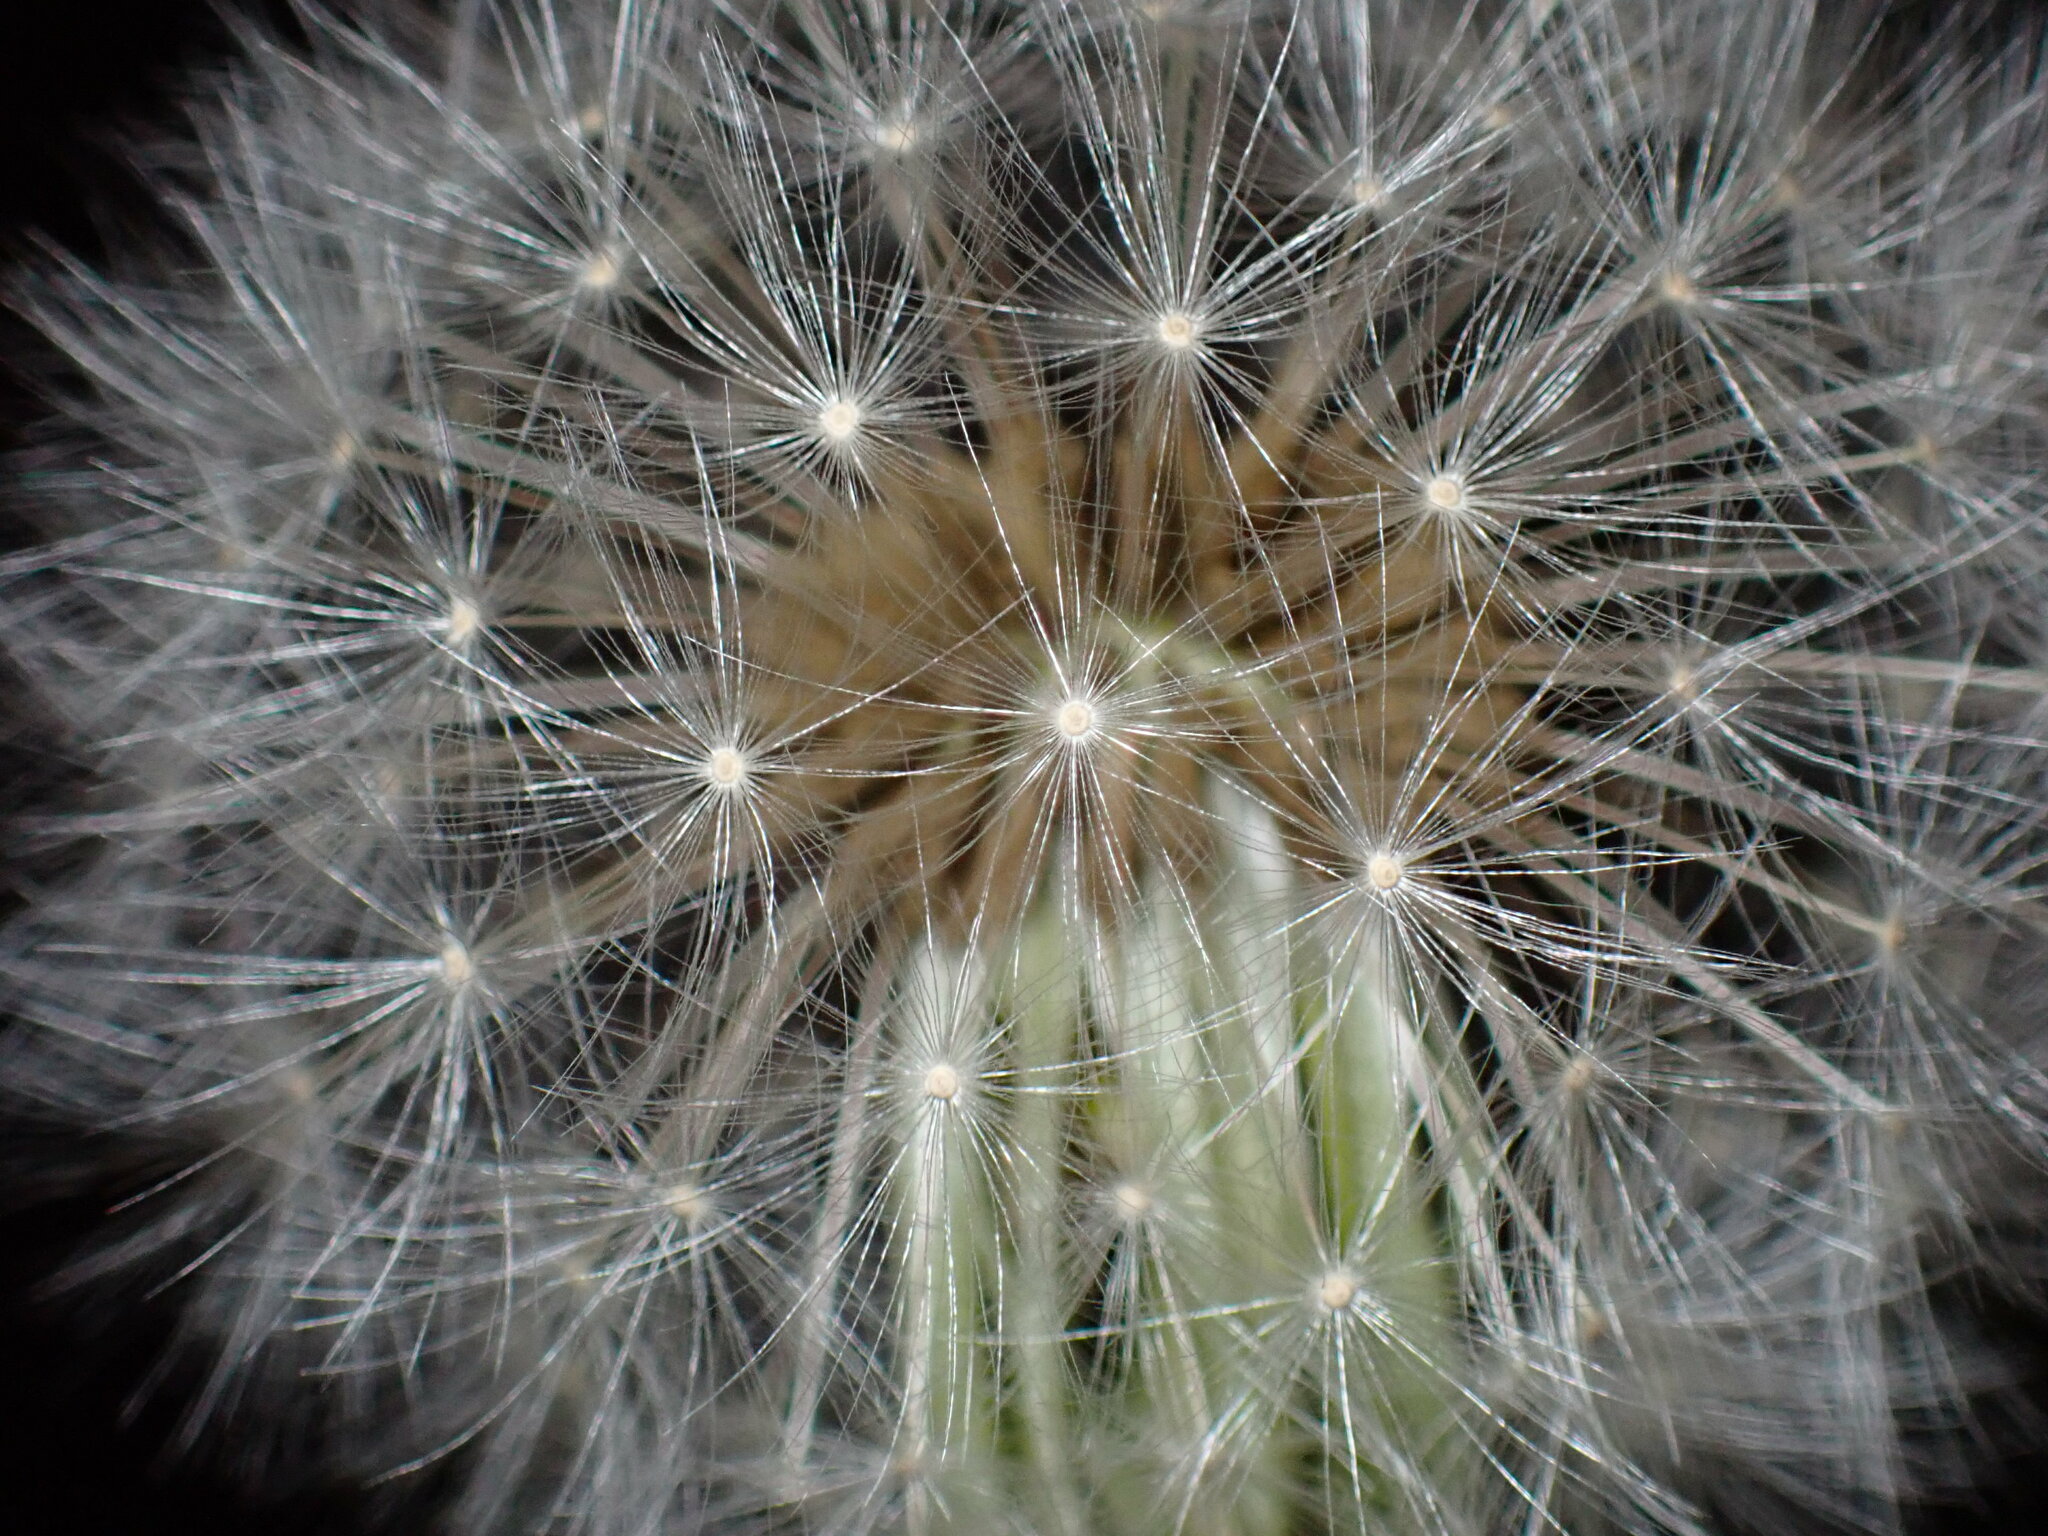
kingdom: Plantae
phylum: Tracheophyta
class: Magnoliopsida
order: Asterales
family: Asteraceae
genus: Taraxacum
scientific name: Taraxacum officinale
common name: Common dandelion
